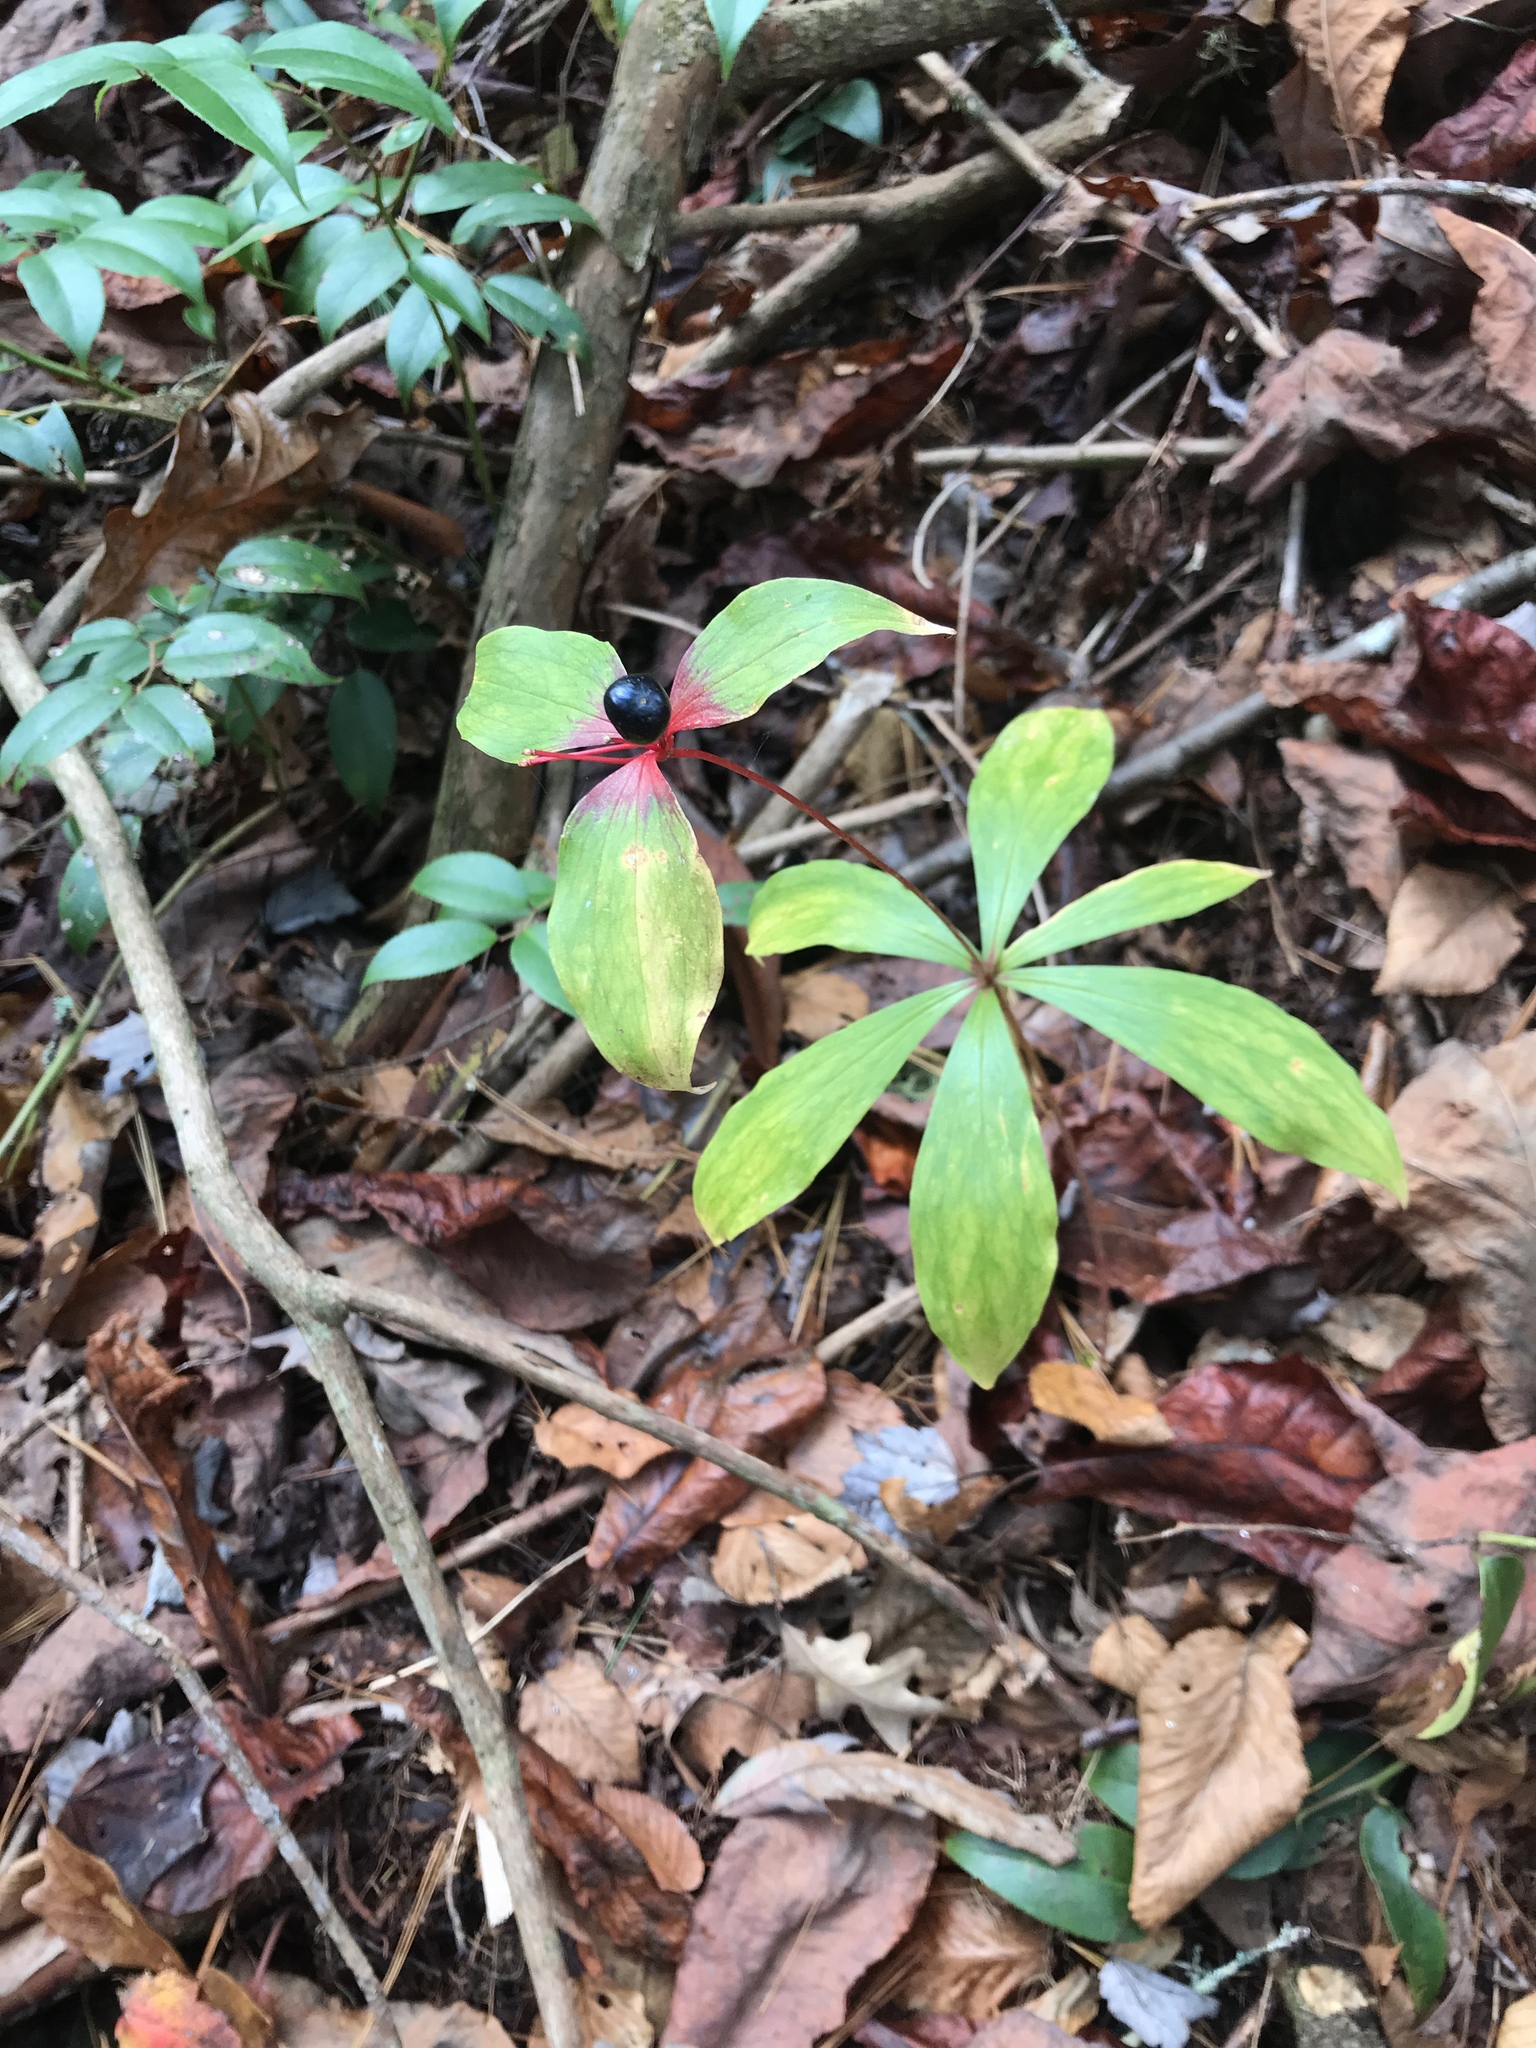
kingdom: Plantae
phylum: Tracheophyta
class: Liliopsida
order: Liliales
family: Liliaceae
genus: Medeola
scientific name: Medeola virginiana
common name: Indian cucumber-root
